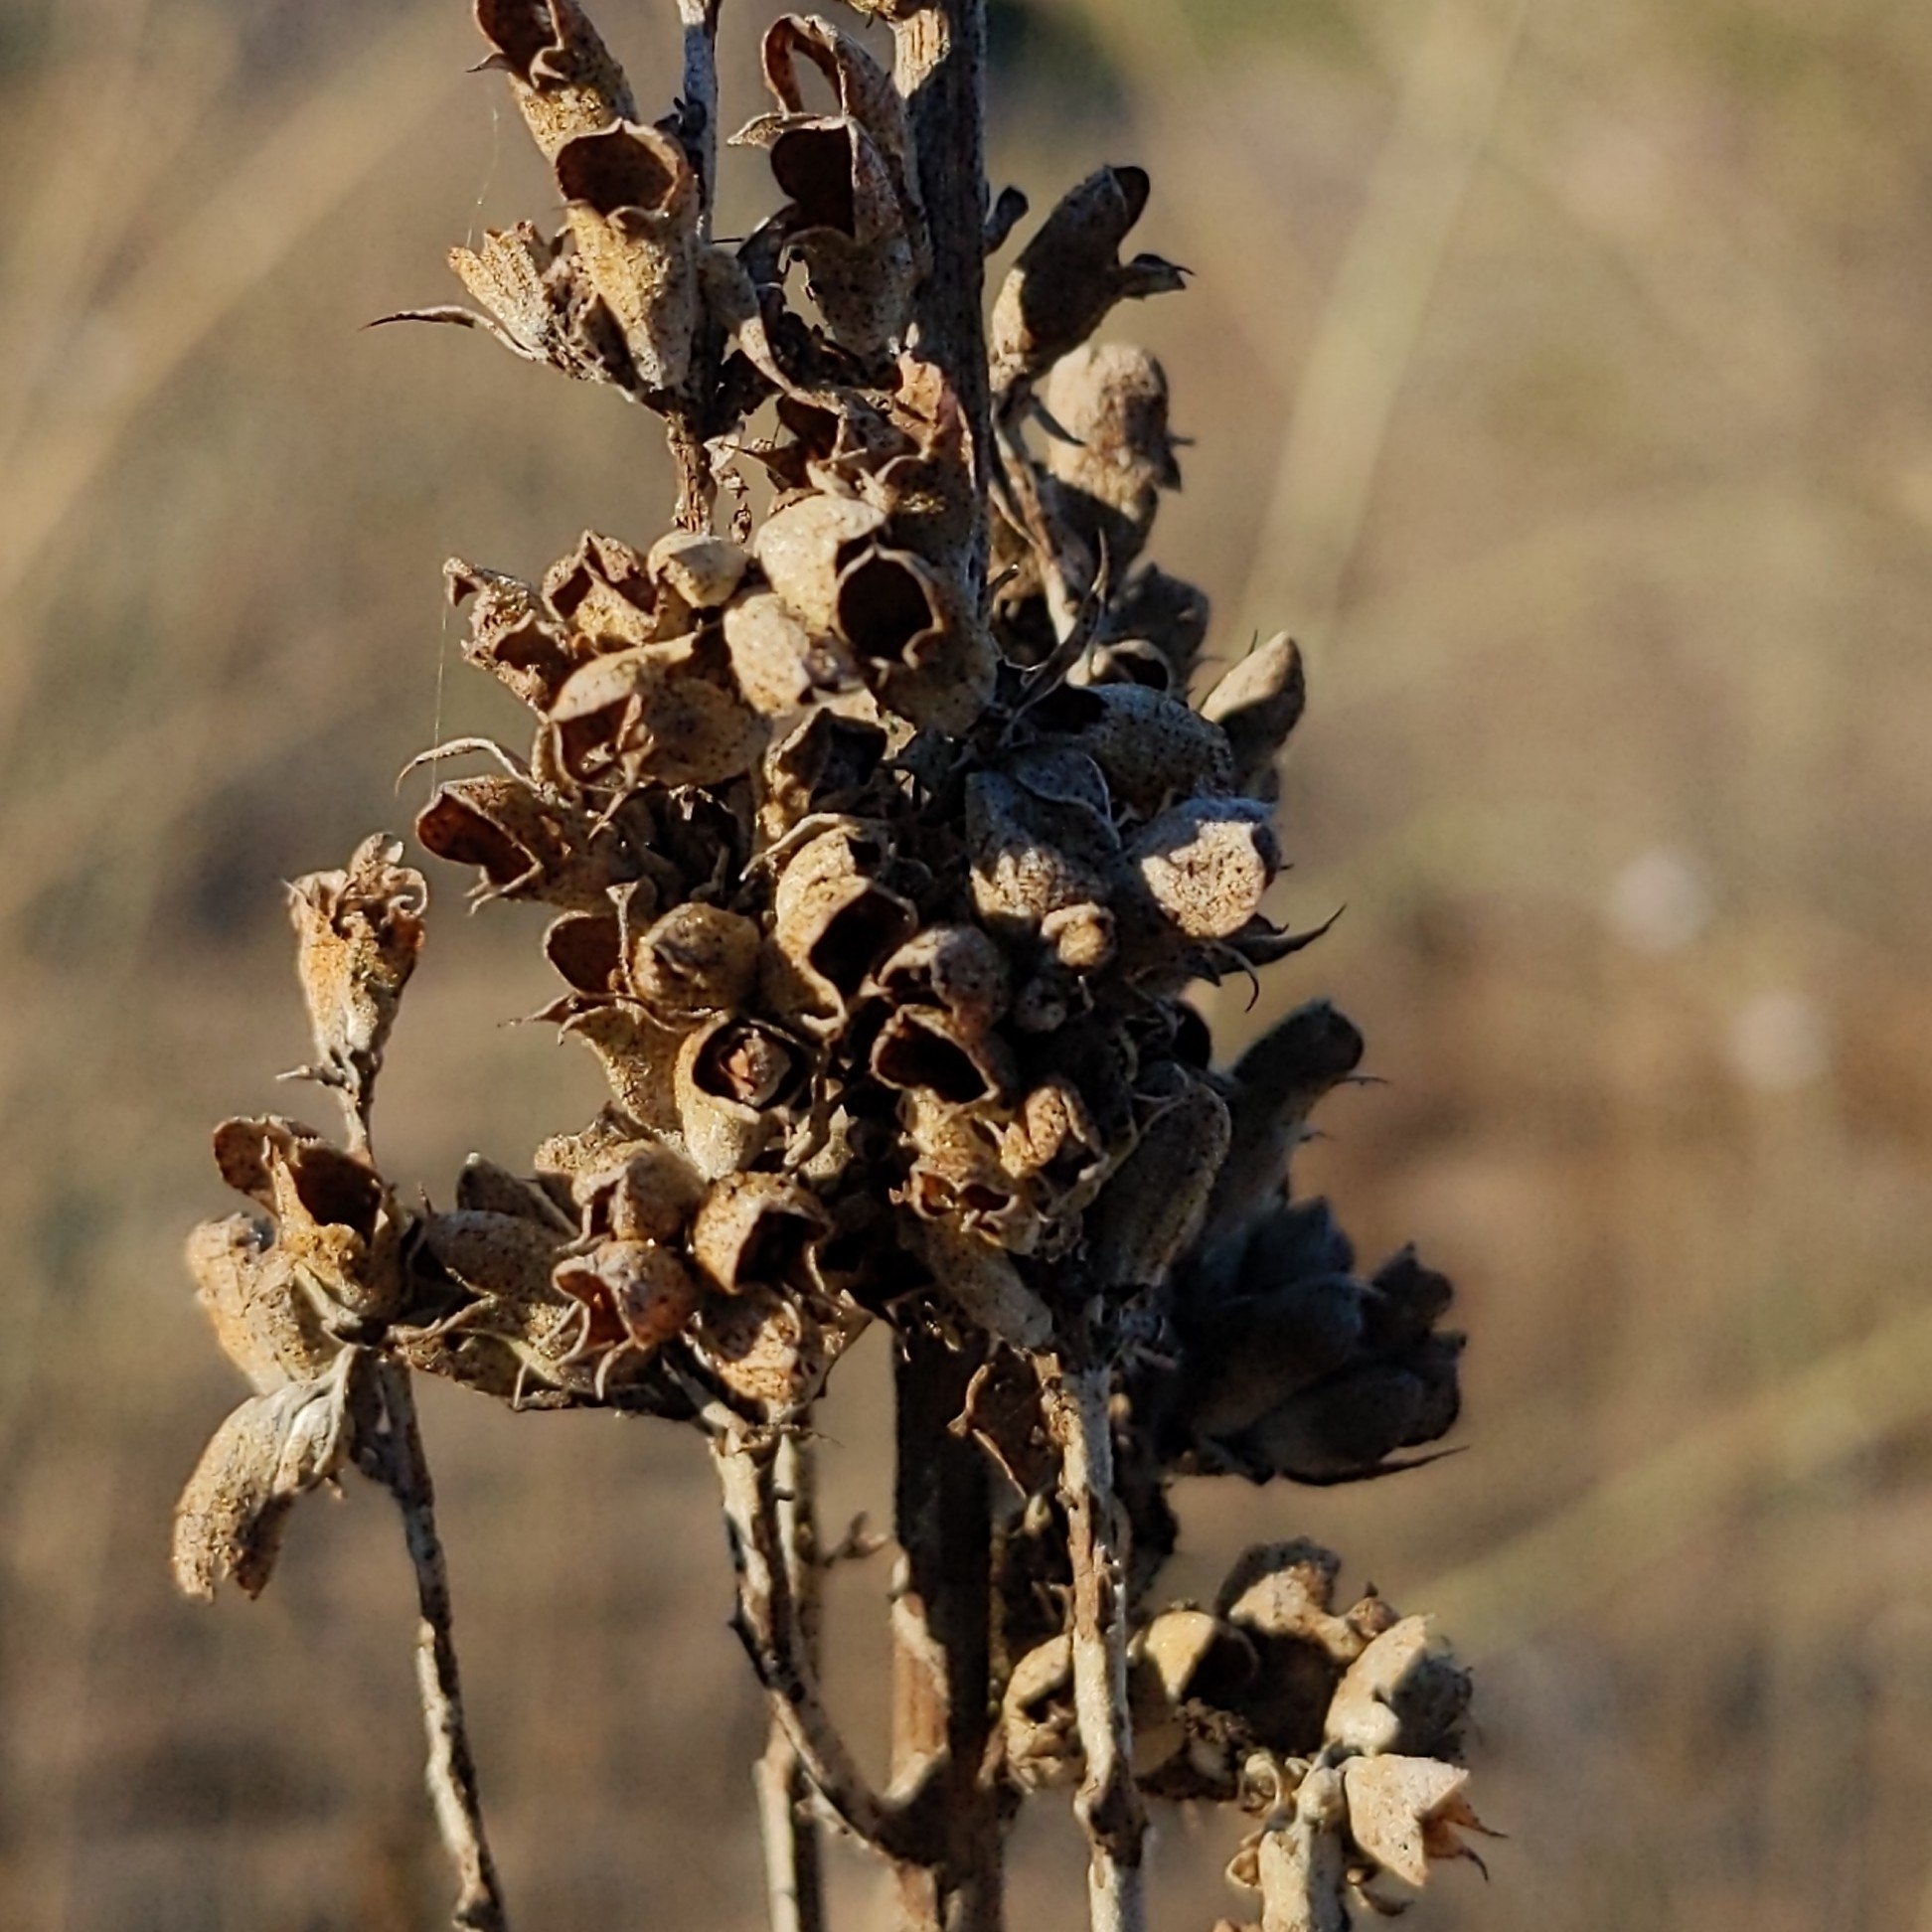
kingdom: Plantae
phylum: Tracheophyta
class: Magnoliopsida
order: Lamiales
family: Lamiaceae
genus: Salvia
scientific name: Salvia apiana
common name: White sage
